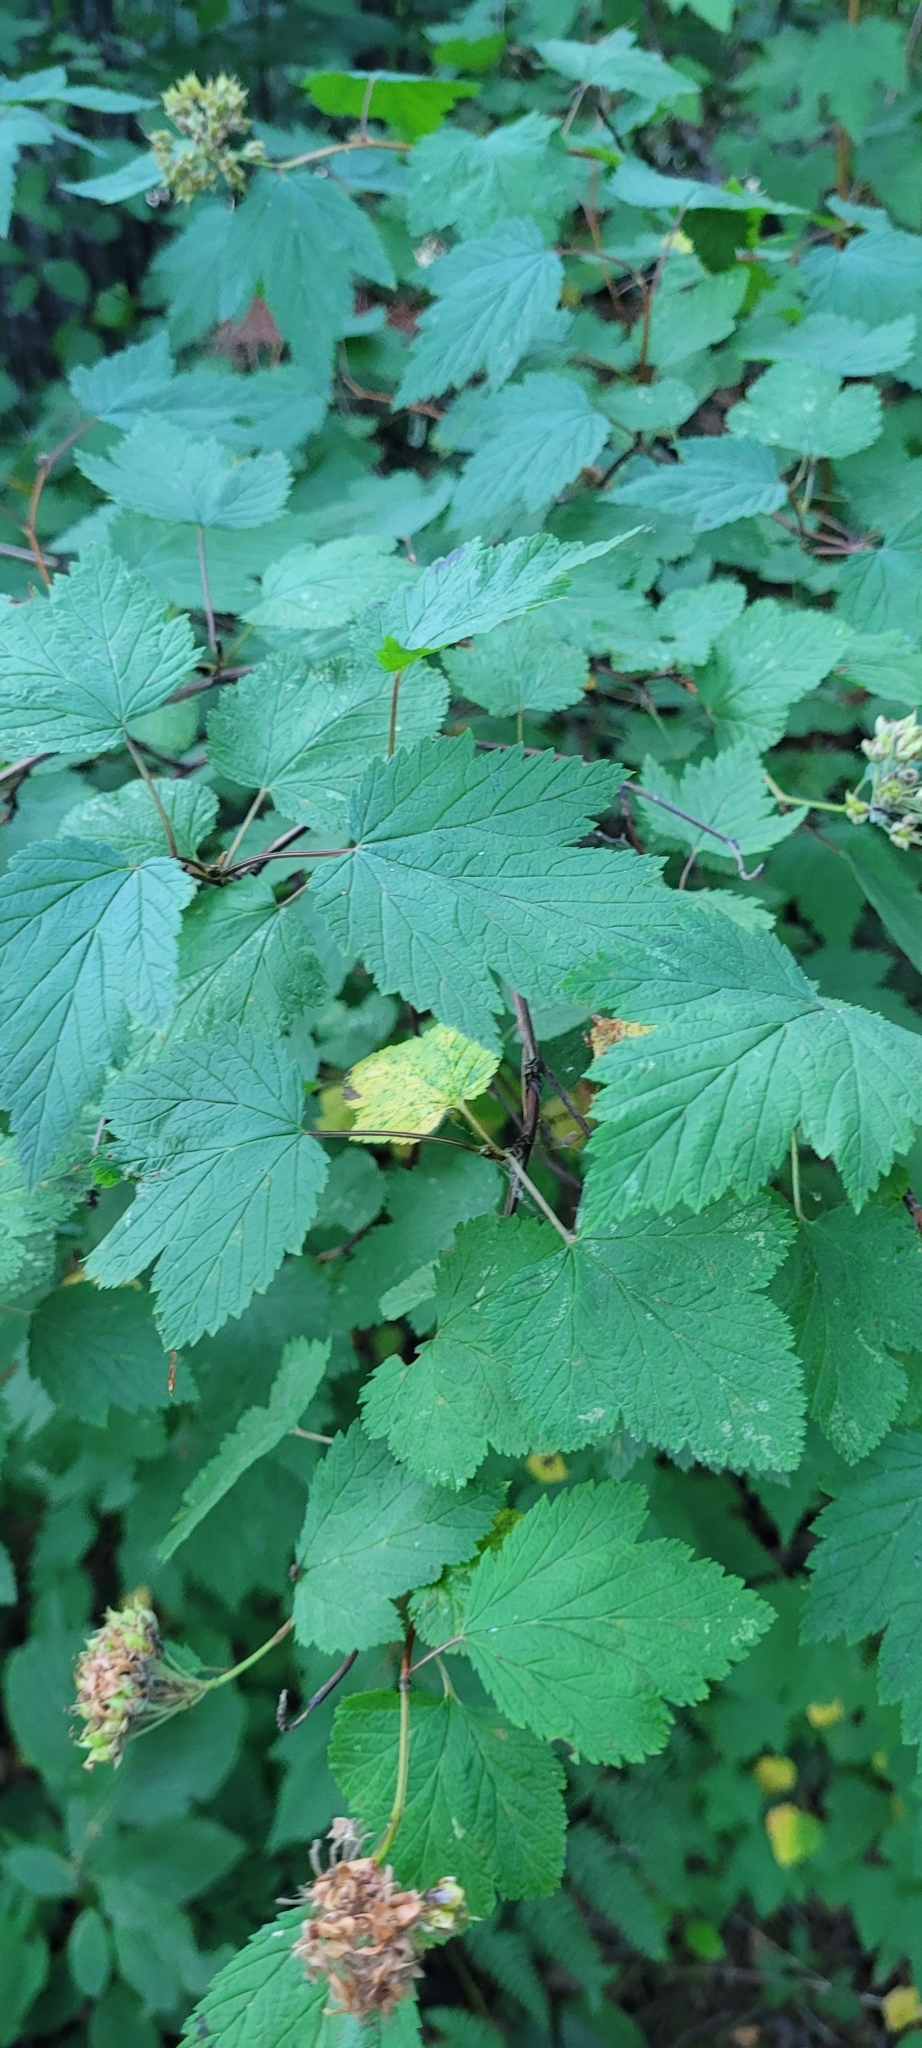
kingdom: Plantae
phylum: Tracheophyta
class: Magnoliopsida
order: Rosales
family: Rosaceae
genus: Physocarpus
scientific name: Physocarpus capitatus
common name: Pacific ninebark
